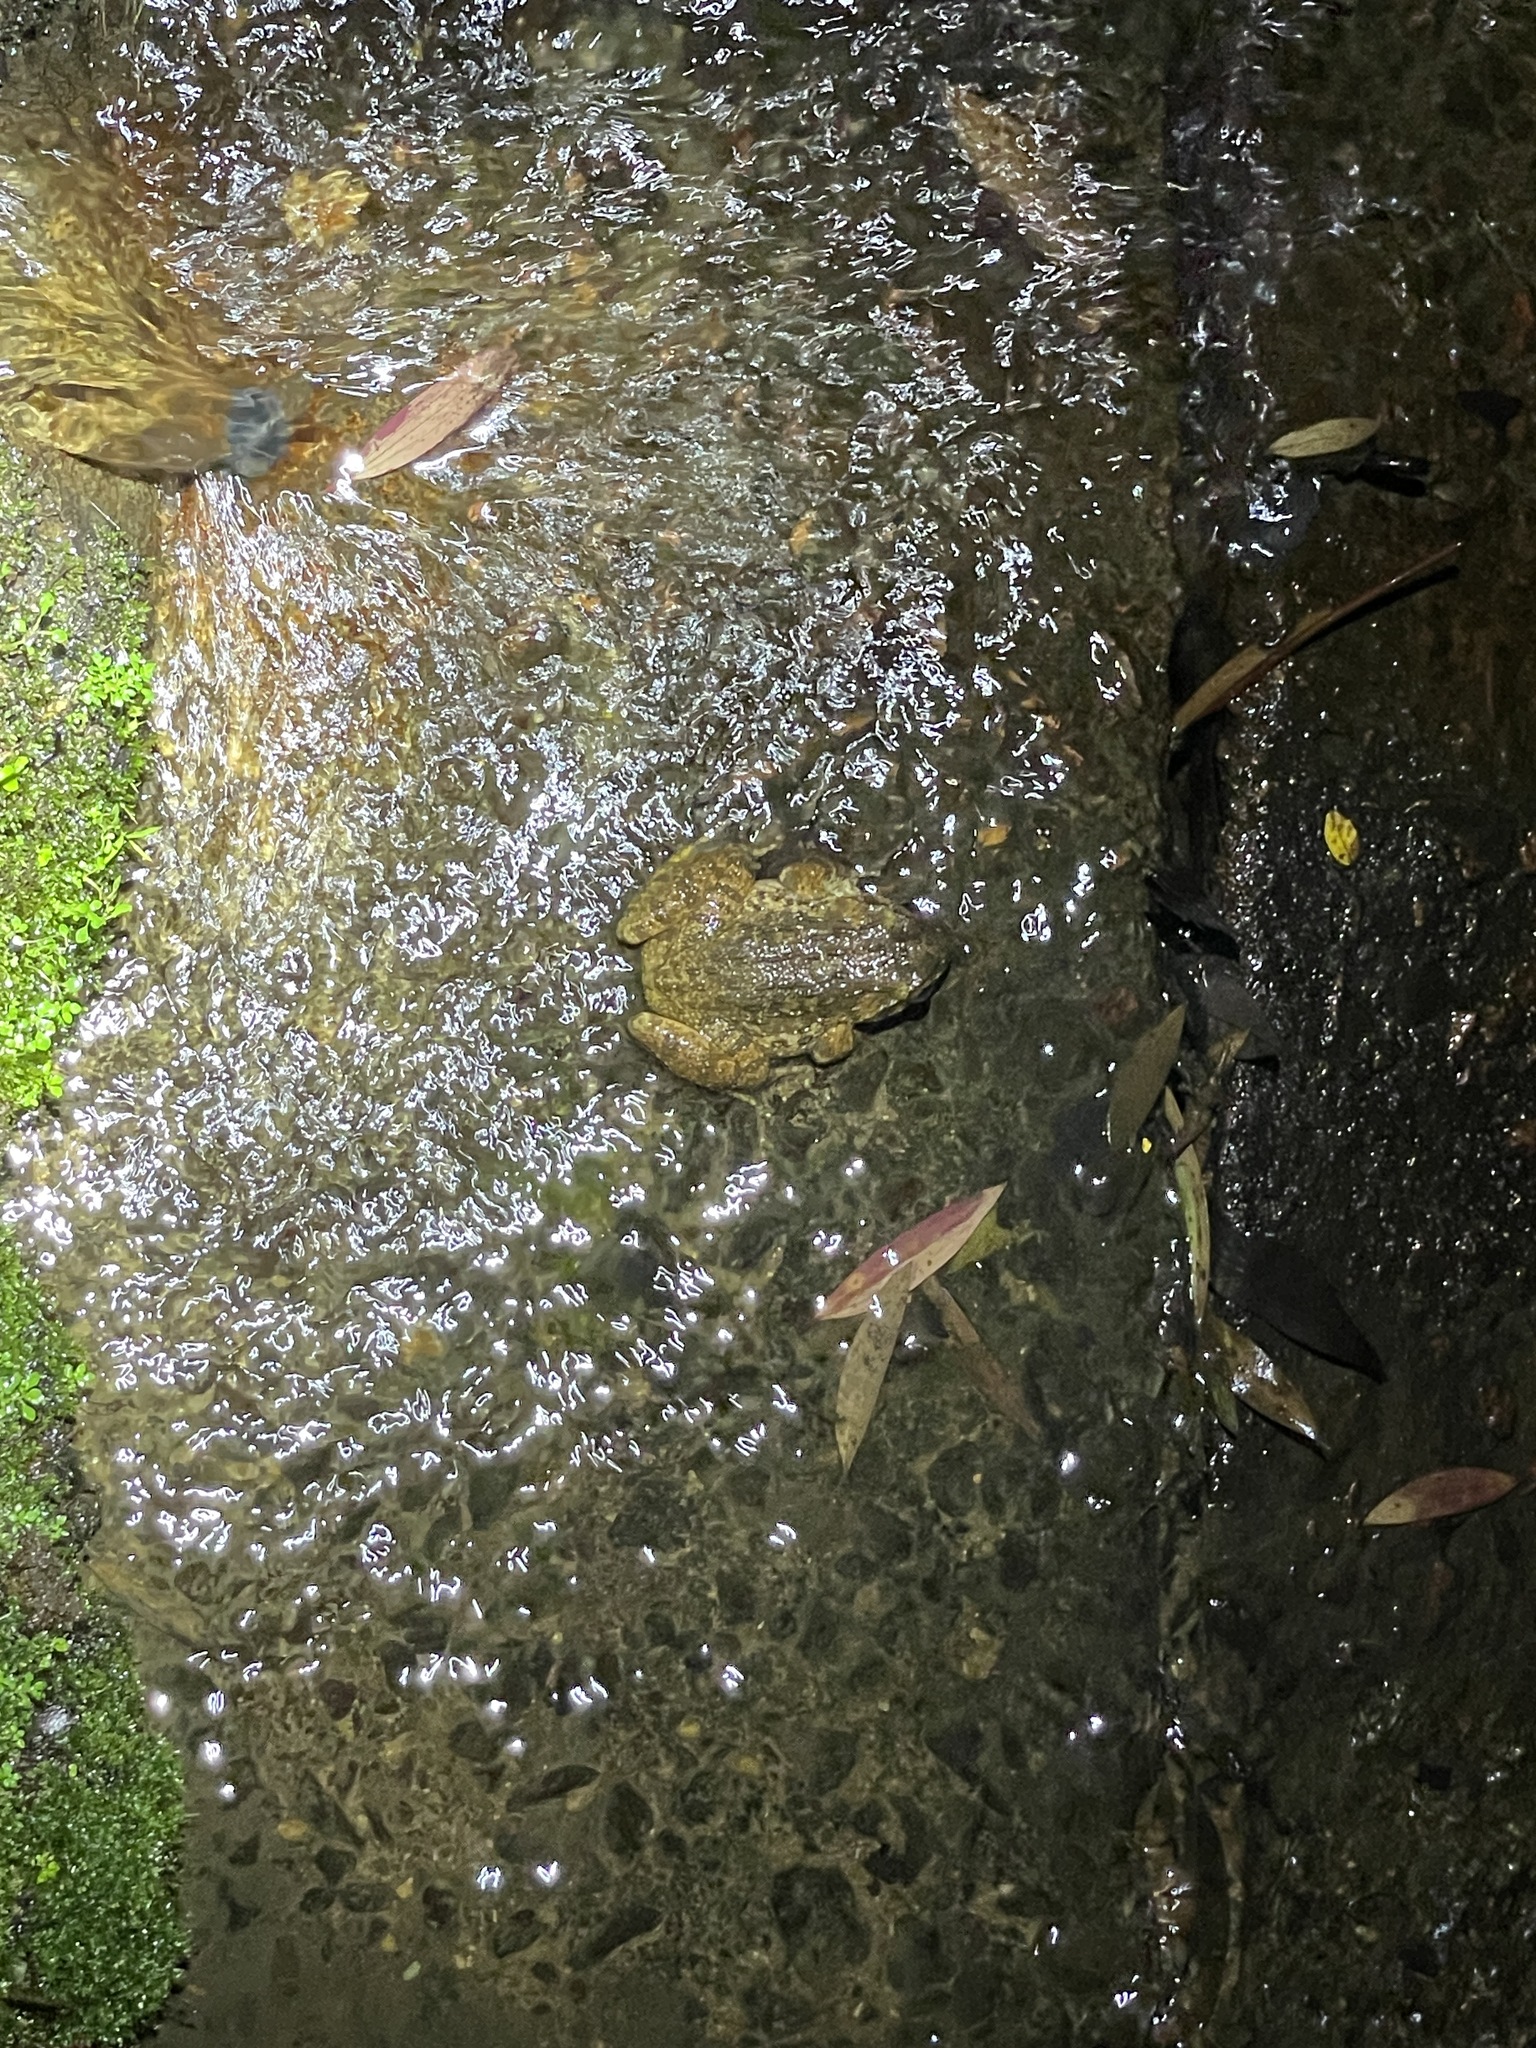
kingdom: Animalia
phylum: Chordata
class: Amphibia
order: Anura
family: Dicroglossidae
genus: Quasipaa
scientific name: Quasipaa exilispinosa
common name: Hong kong paa frog
